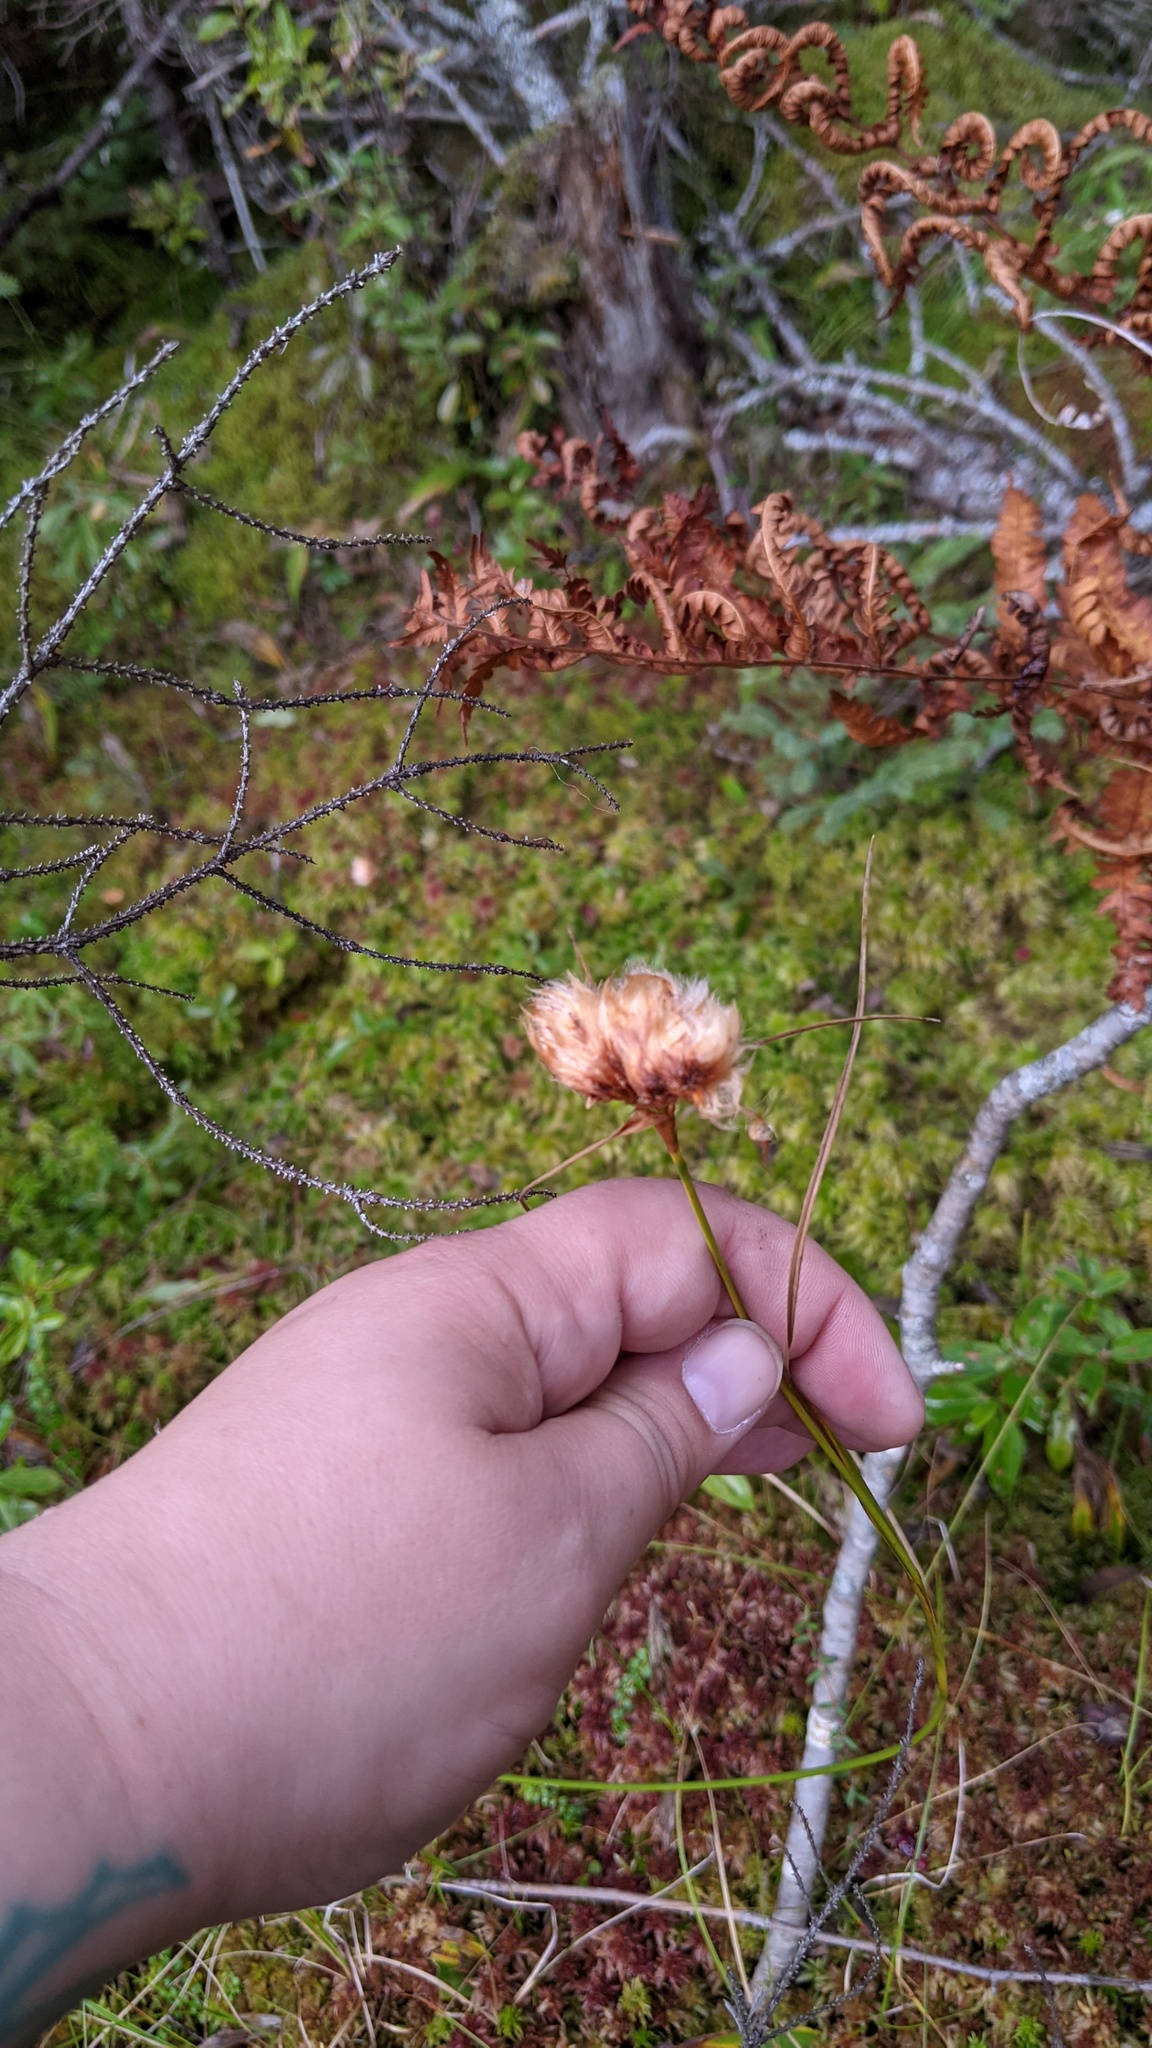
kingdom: Plantae
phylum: Tracheophyta
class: Liliopsida
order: Poales
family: Cyperaceae
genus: Eriophorum
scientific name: Eriophorum virginicum
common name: Tawny cottongrass
